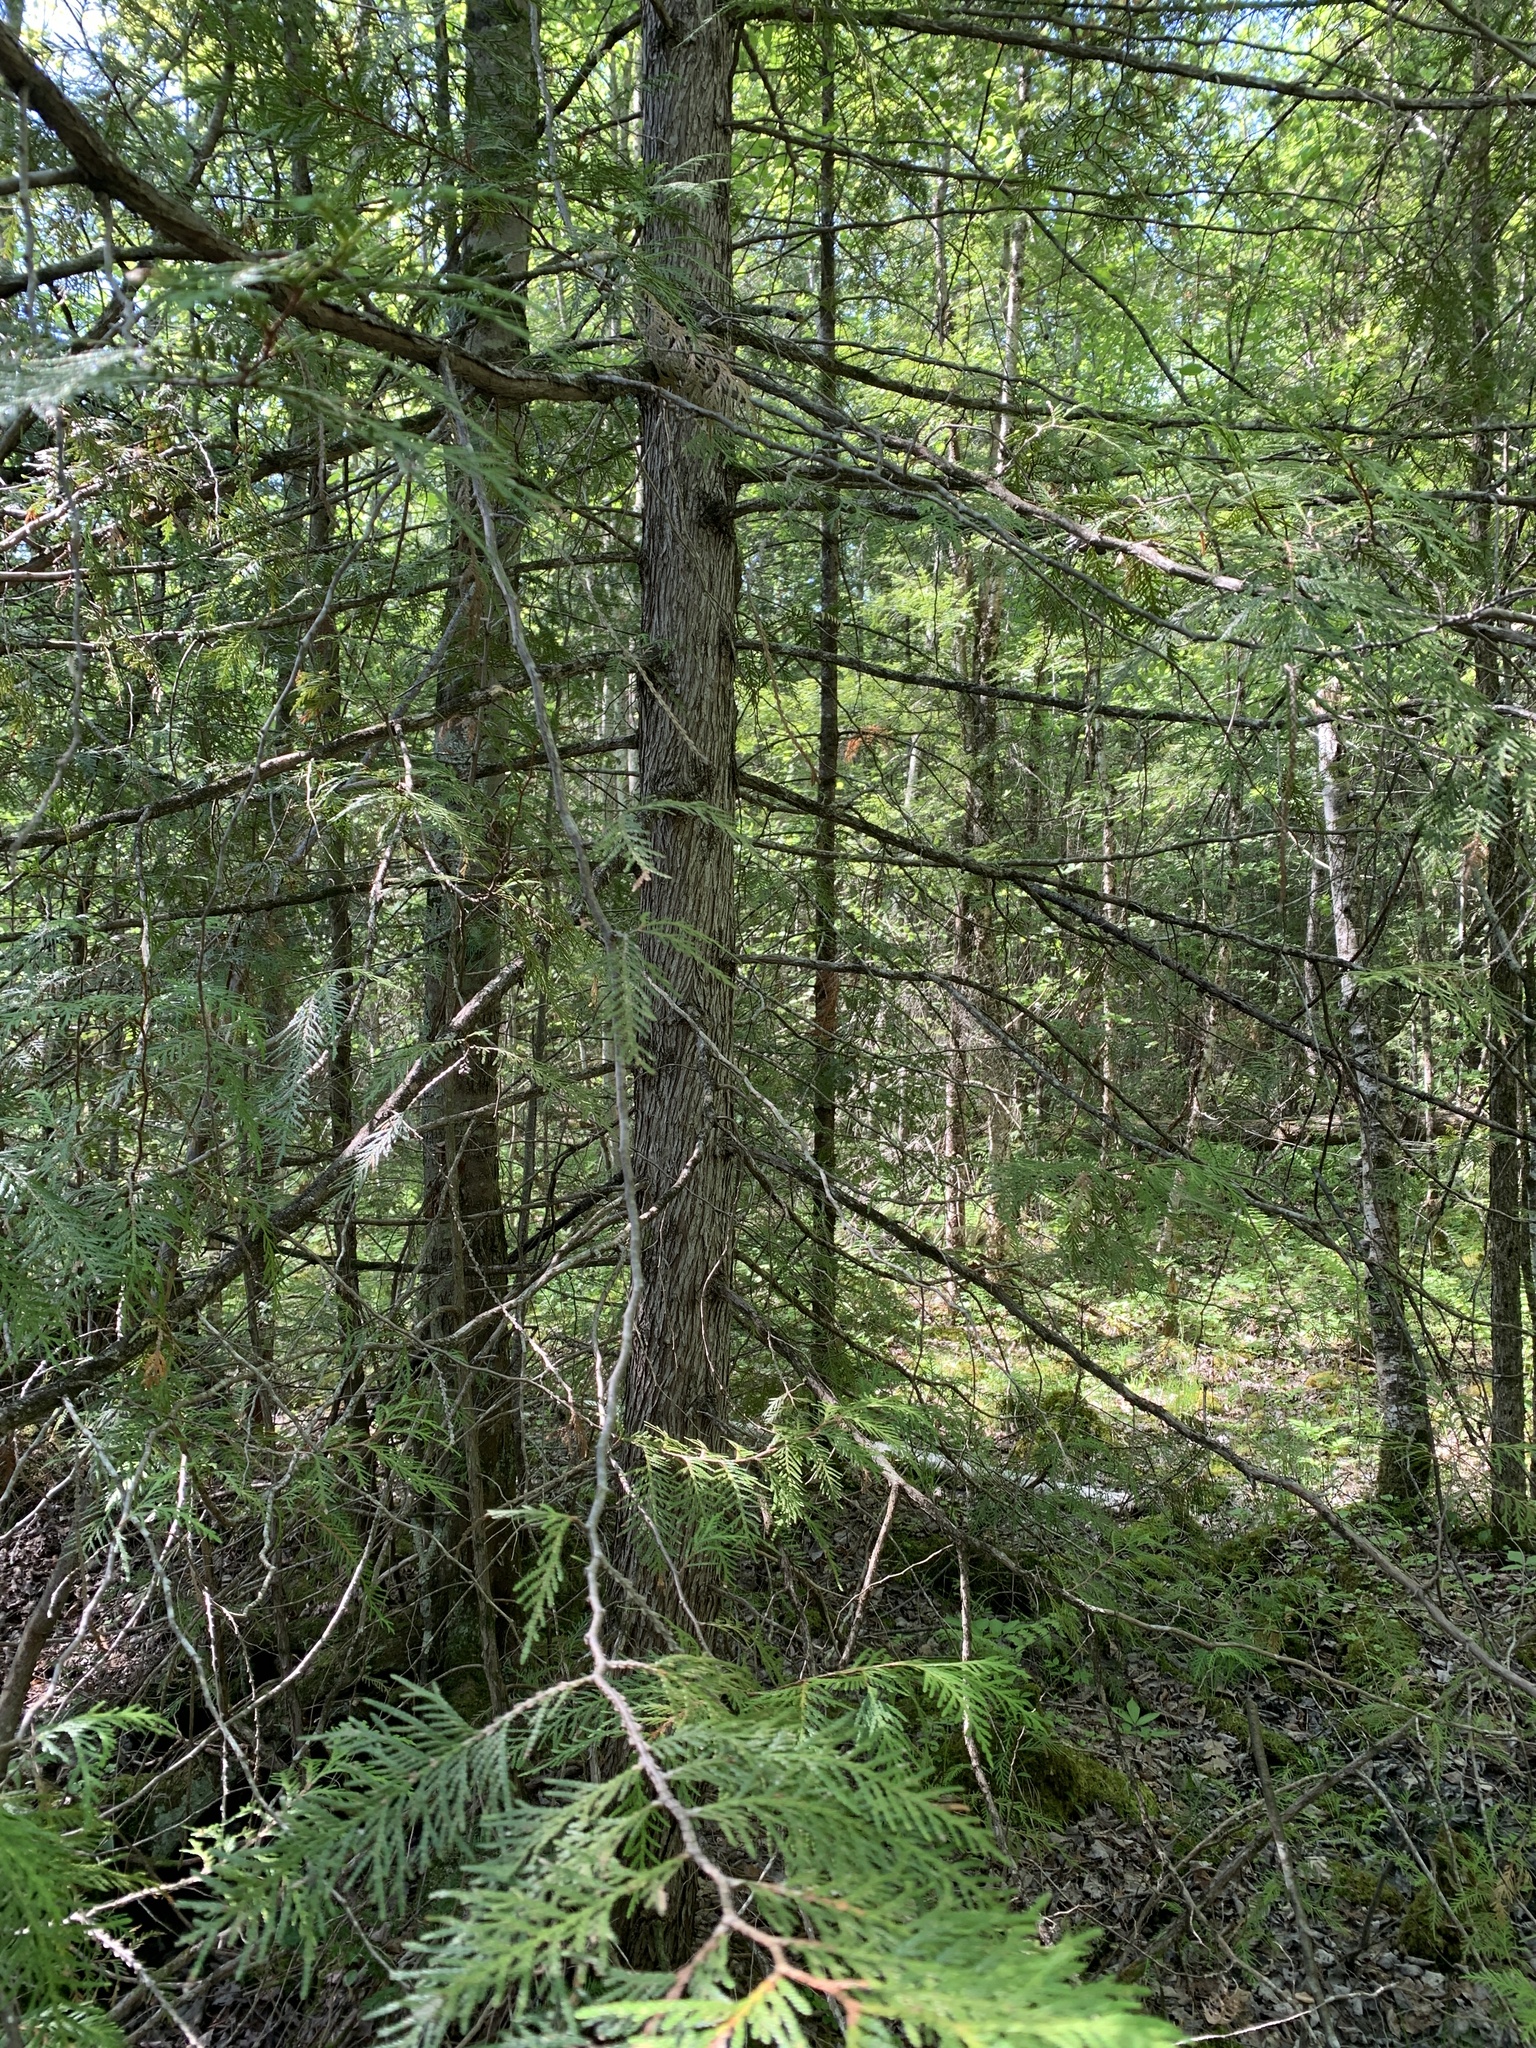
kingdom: Plantae
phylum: Tracheophyta
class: Pinopsida
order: Pinales
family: Cupressaceae
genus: Thuja
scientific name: Thuja occidentalis
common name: Northern white-cedar
